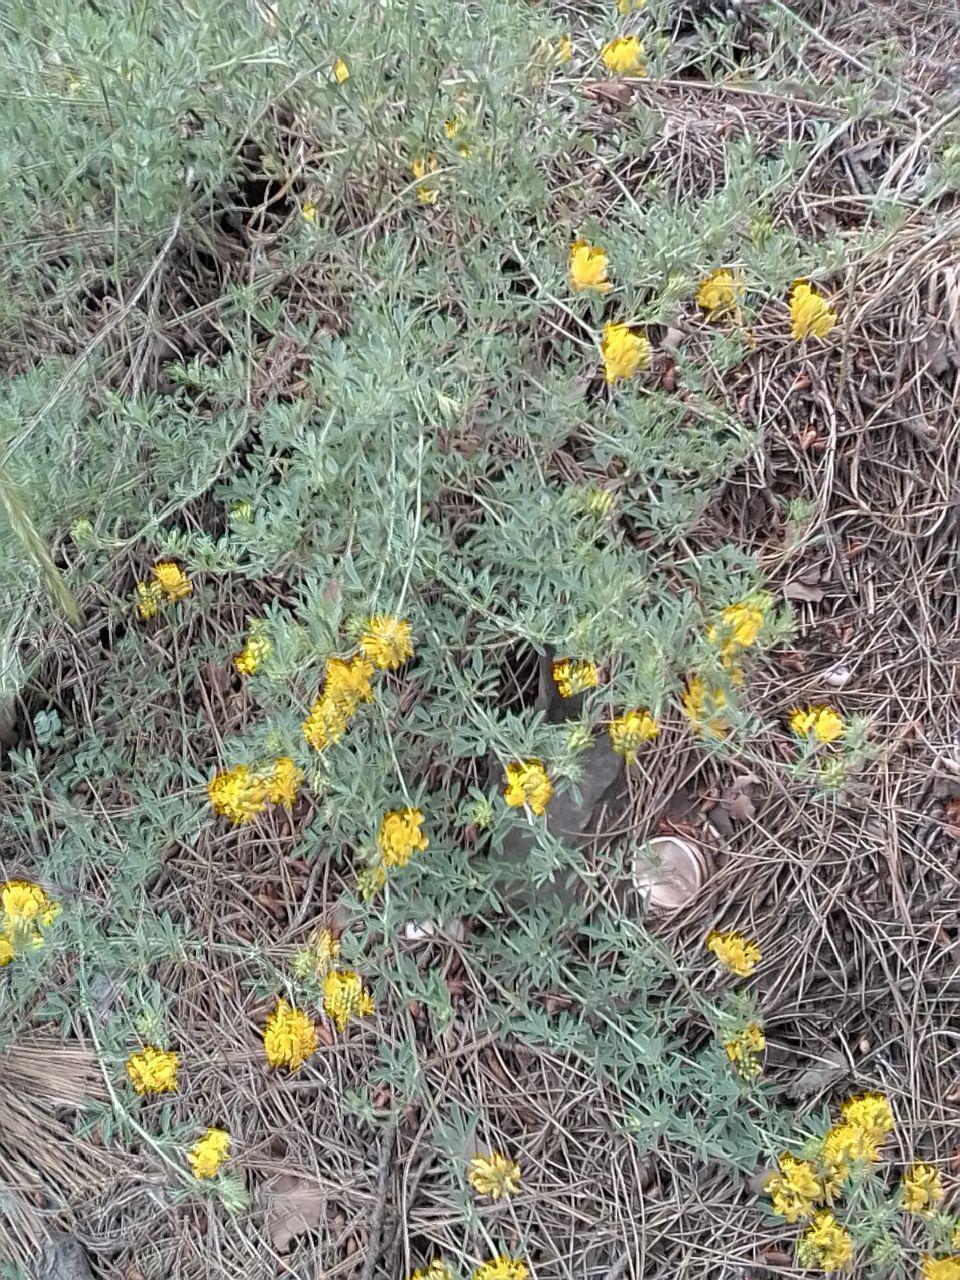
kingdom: Plantae
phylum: Tracheophyta
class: Magnoliopsida
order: Fabales
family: Fabaceae
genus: Medicago
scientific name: Medicago falcata
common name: Sickle medick
